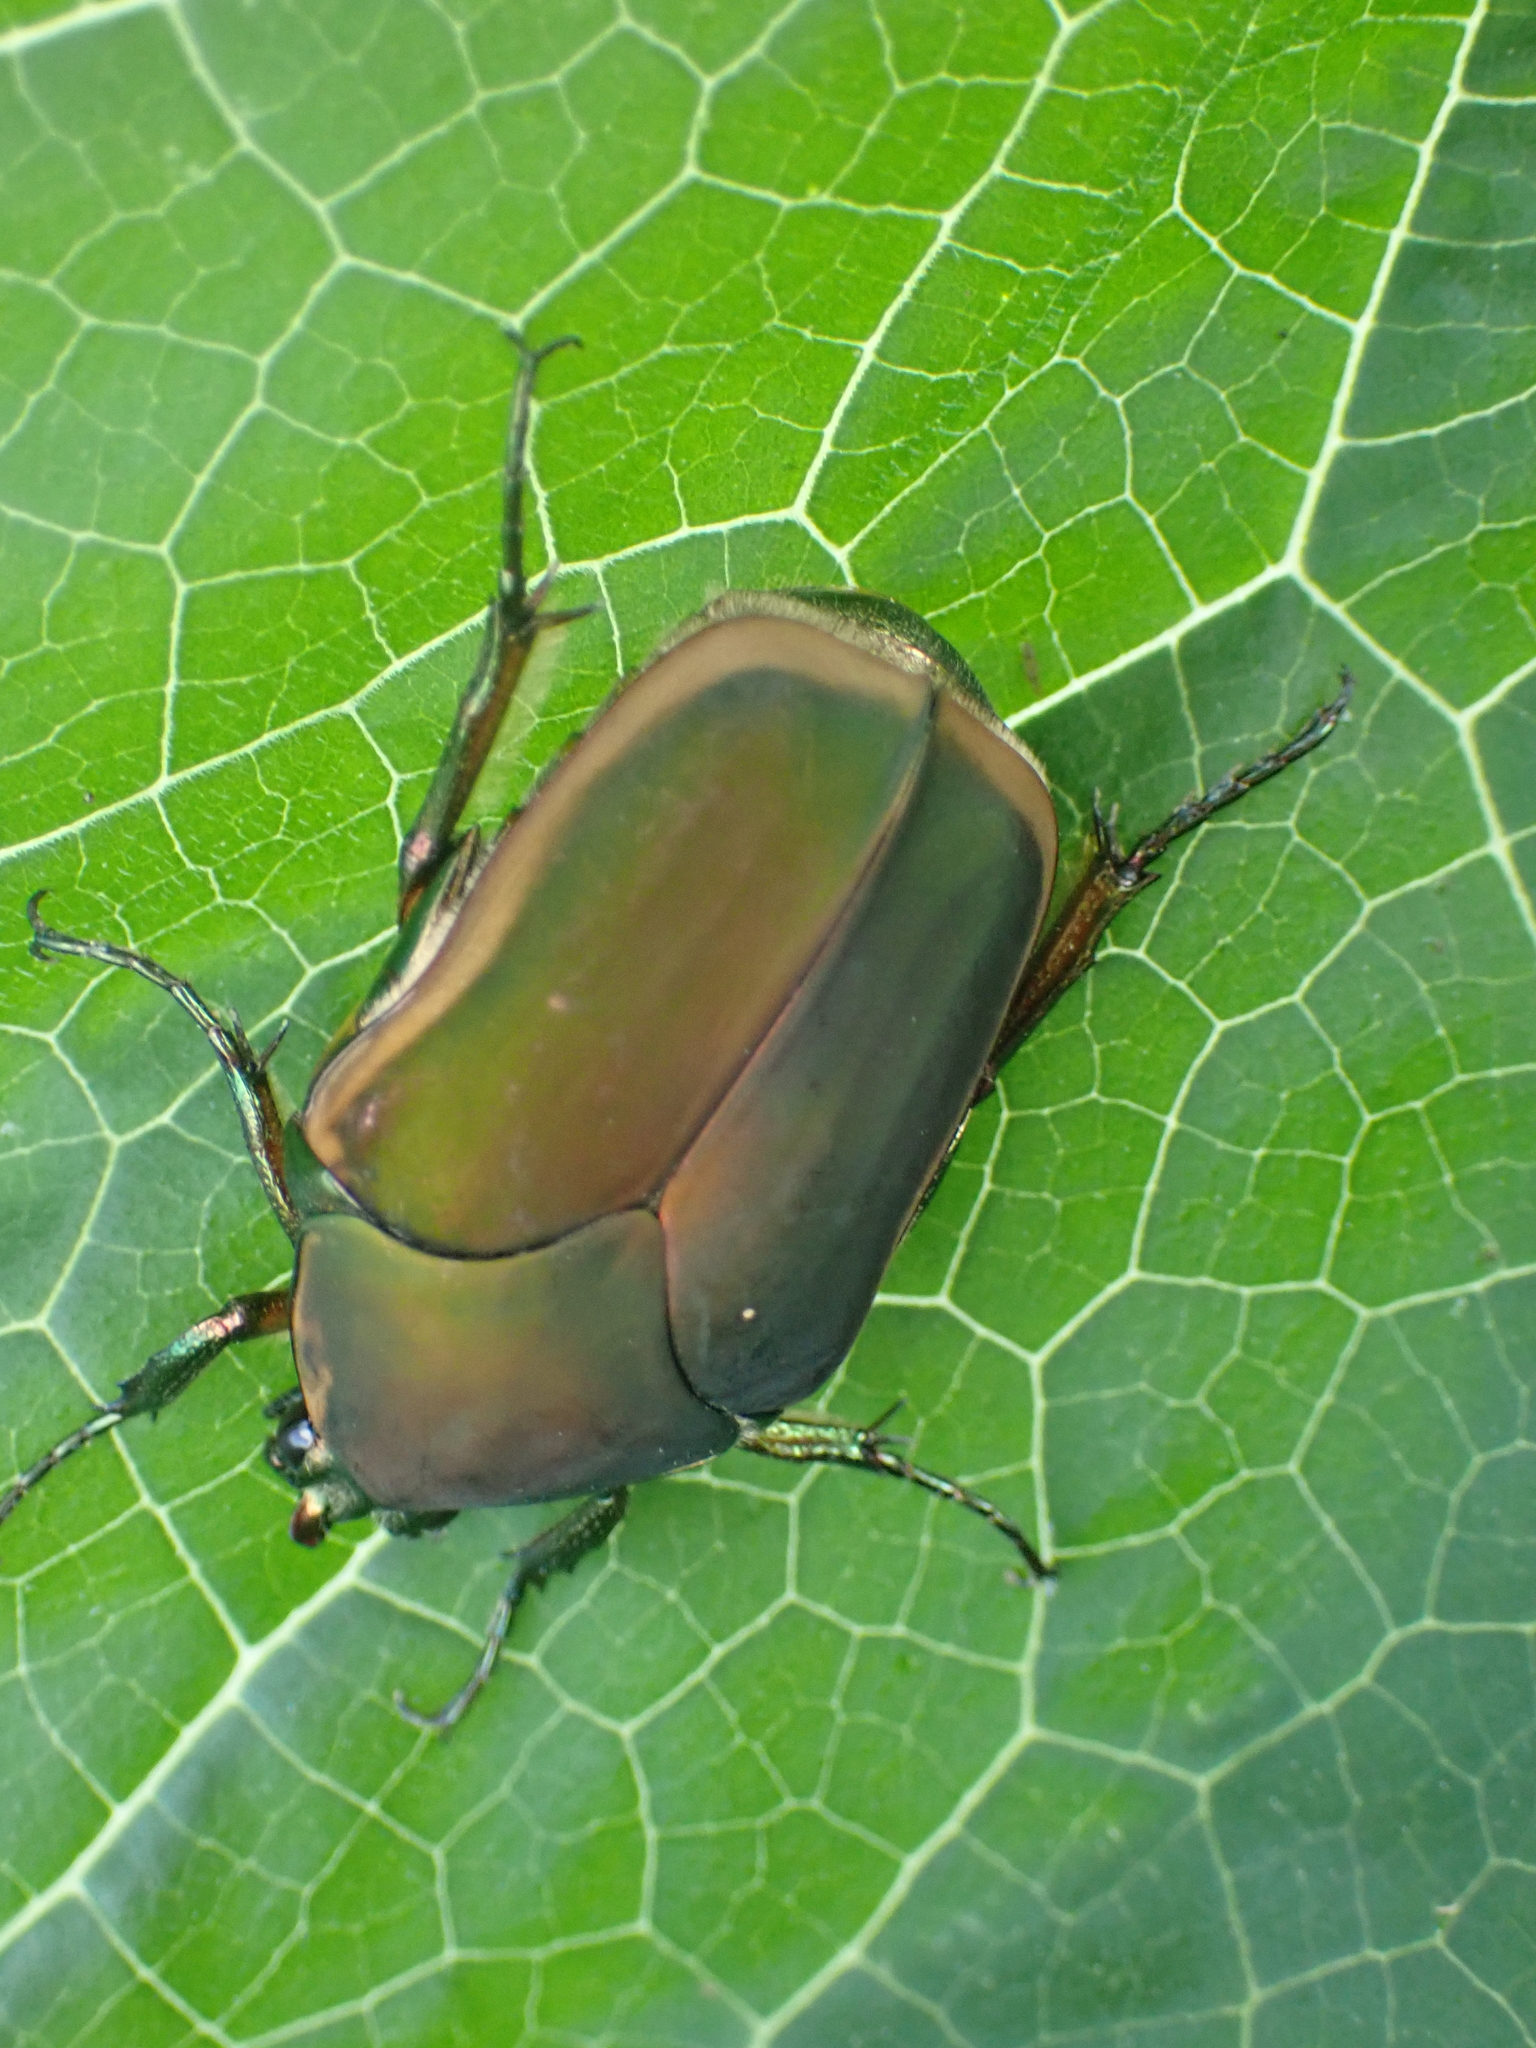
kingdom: Animalia
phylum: Arthropoda
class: Insecta
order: Coleoptera
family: Scarabaeidae
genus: Cotinis
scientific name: Cotinis nitida
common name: Common green june beetle
